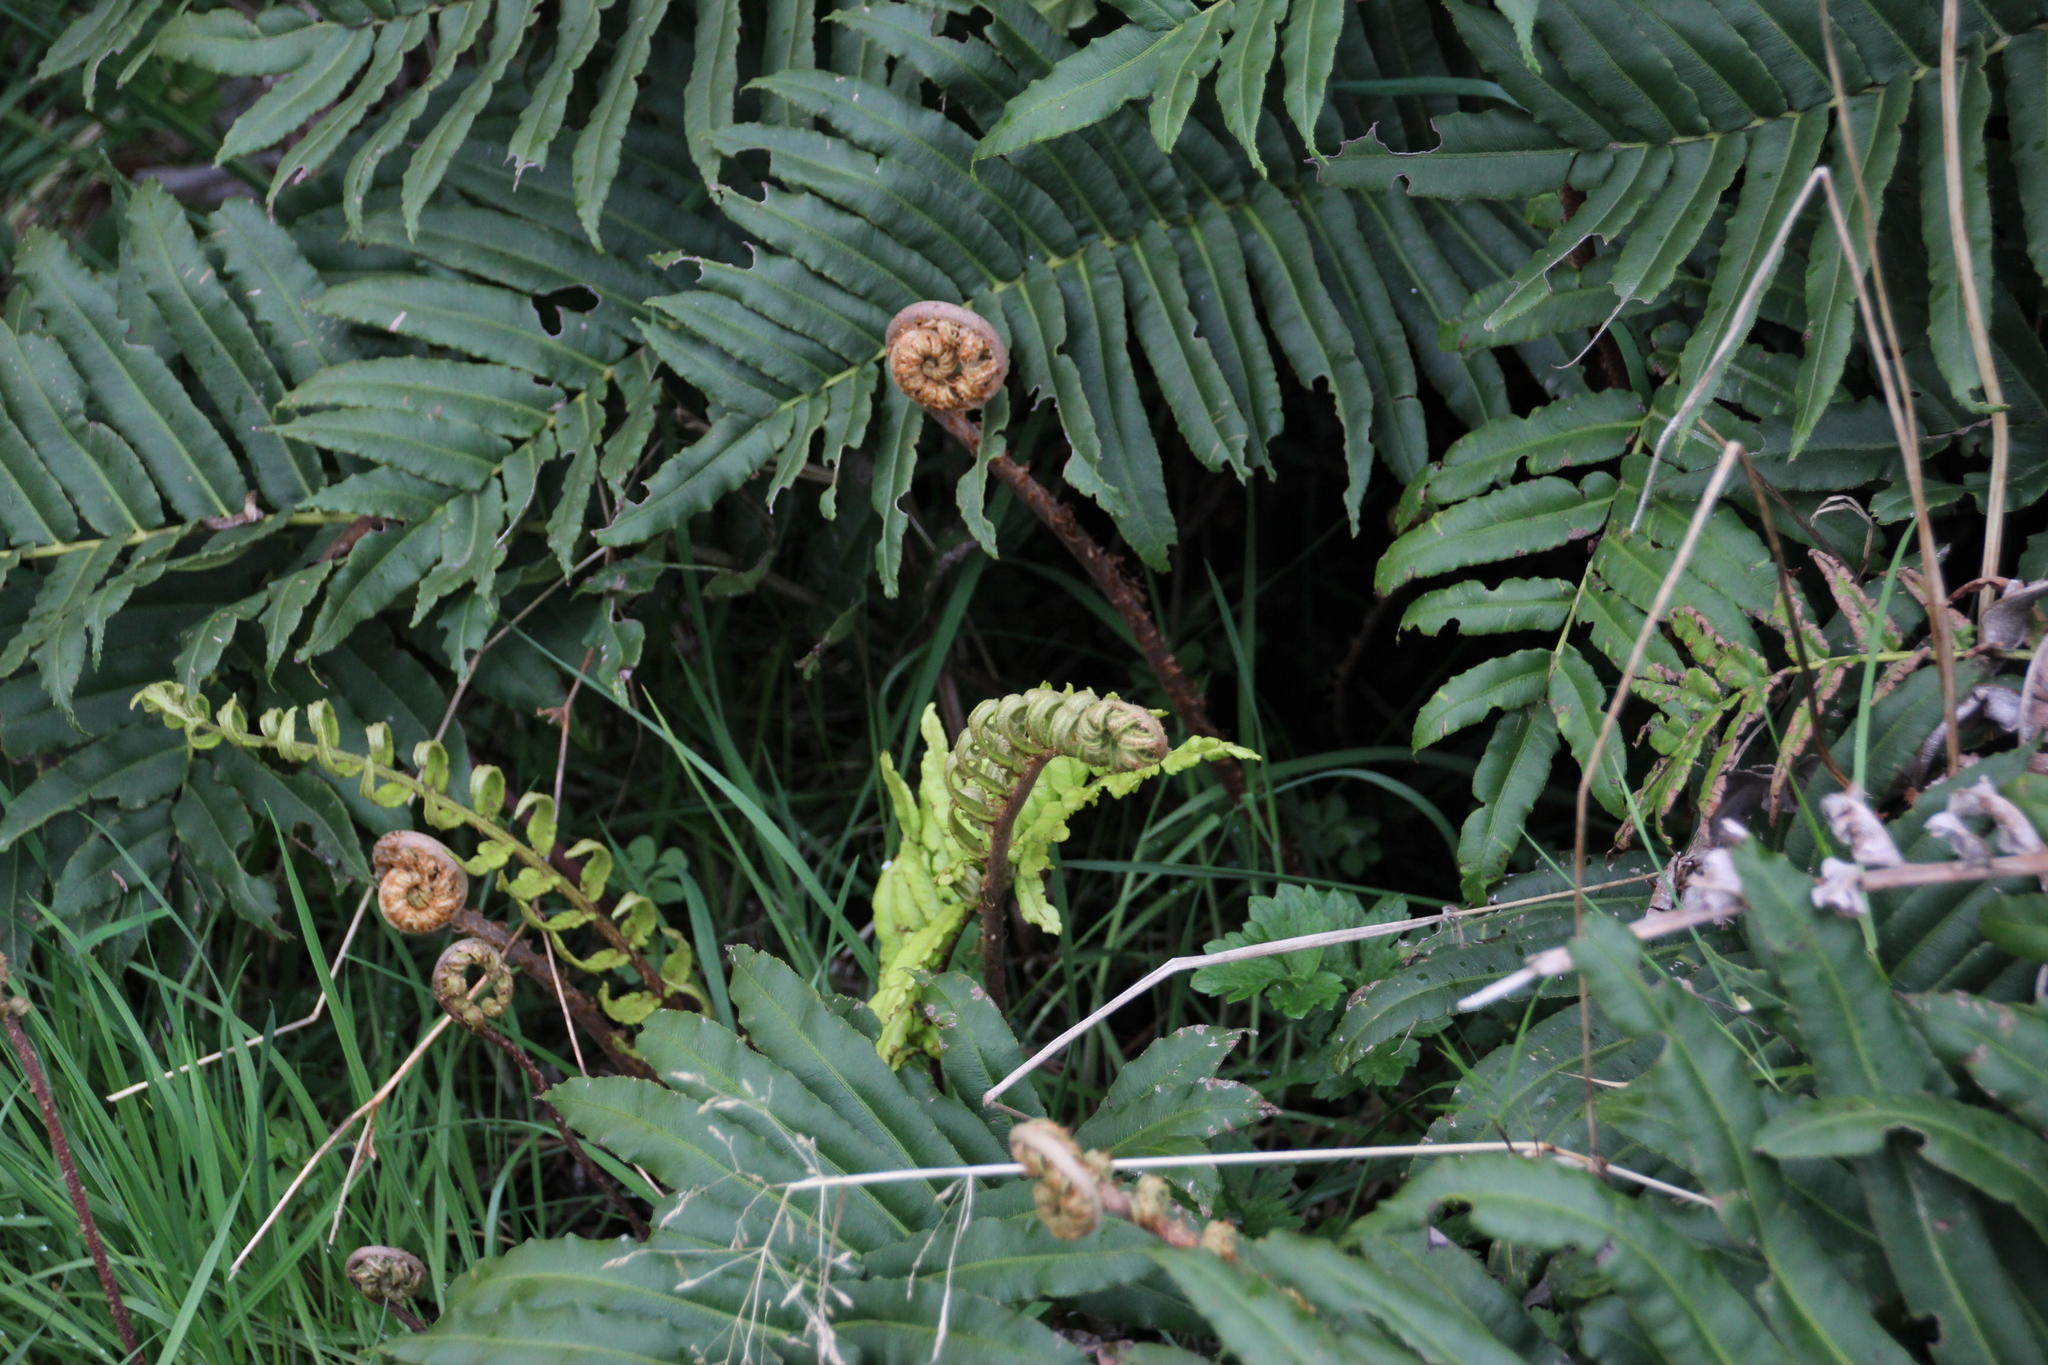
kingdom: Plantae
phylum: Tracheophyta
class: Polypodiopsida
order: Polypodiales
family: Blechnaceae
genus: Parablechnum
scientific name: Parablechnum chilense
